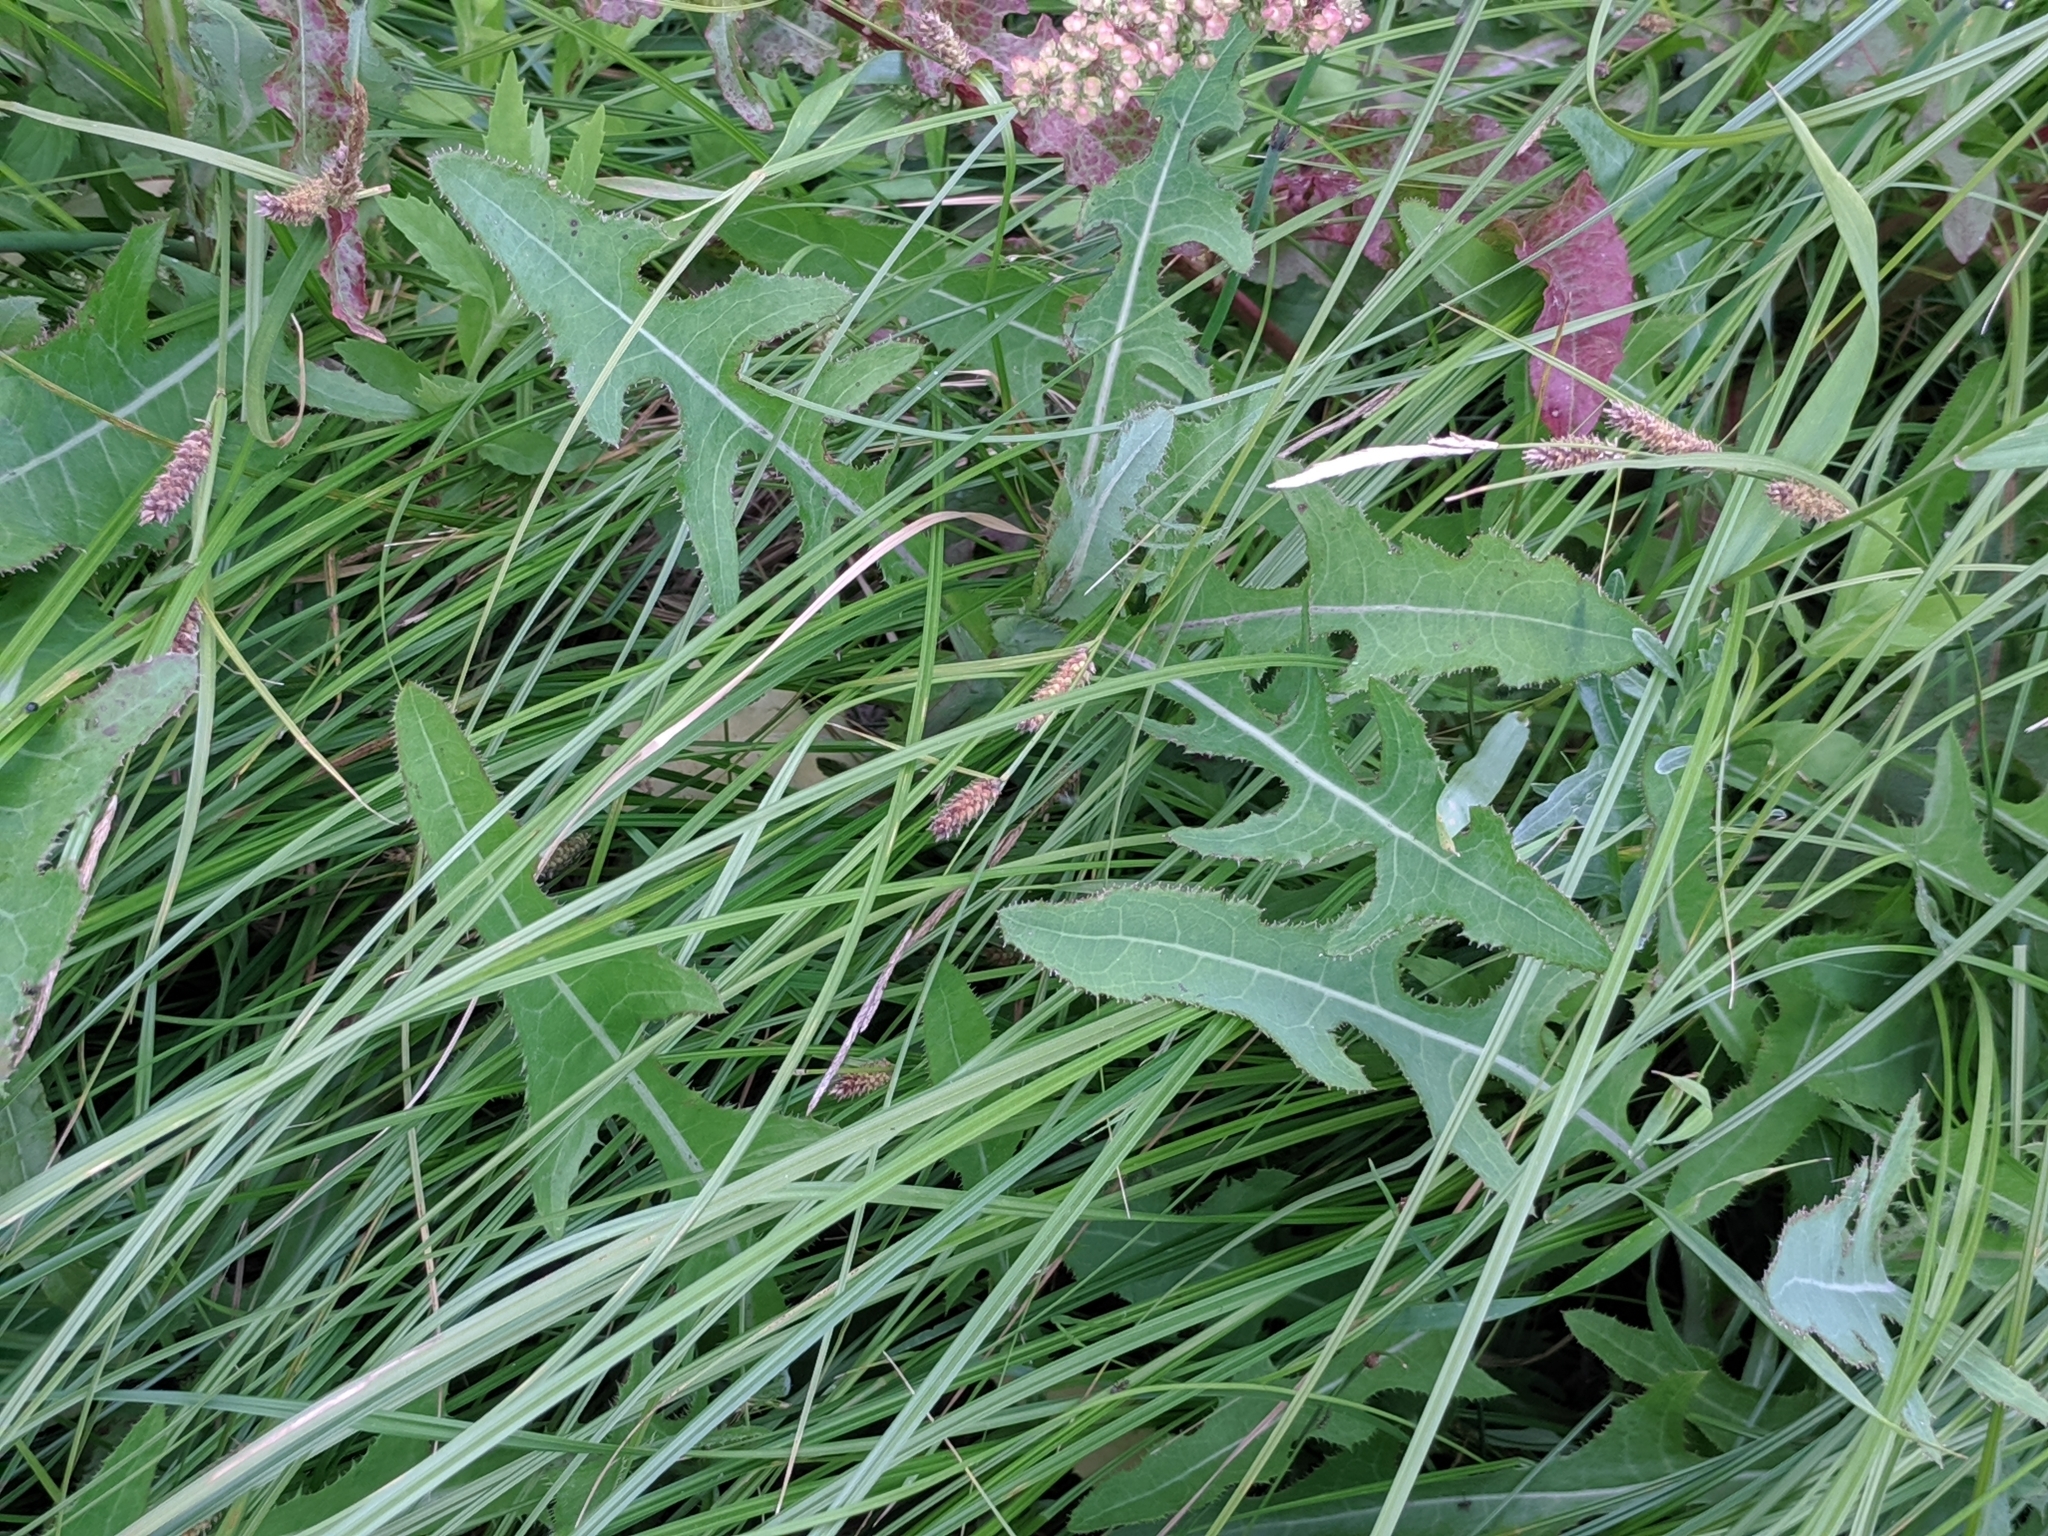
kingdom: Plantae
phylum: Tracheophyta
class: Magnoliopsida
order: Asterales
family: Asteraceae
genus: Sonchus
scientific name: Sonchus arvensis
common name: Perennial sow-thistle
